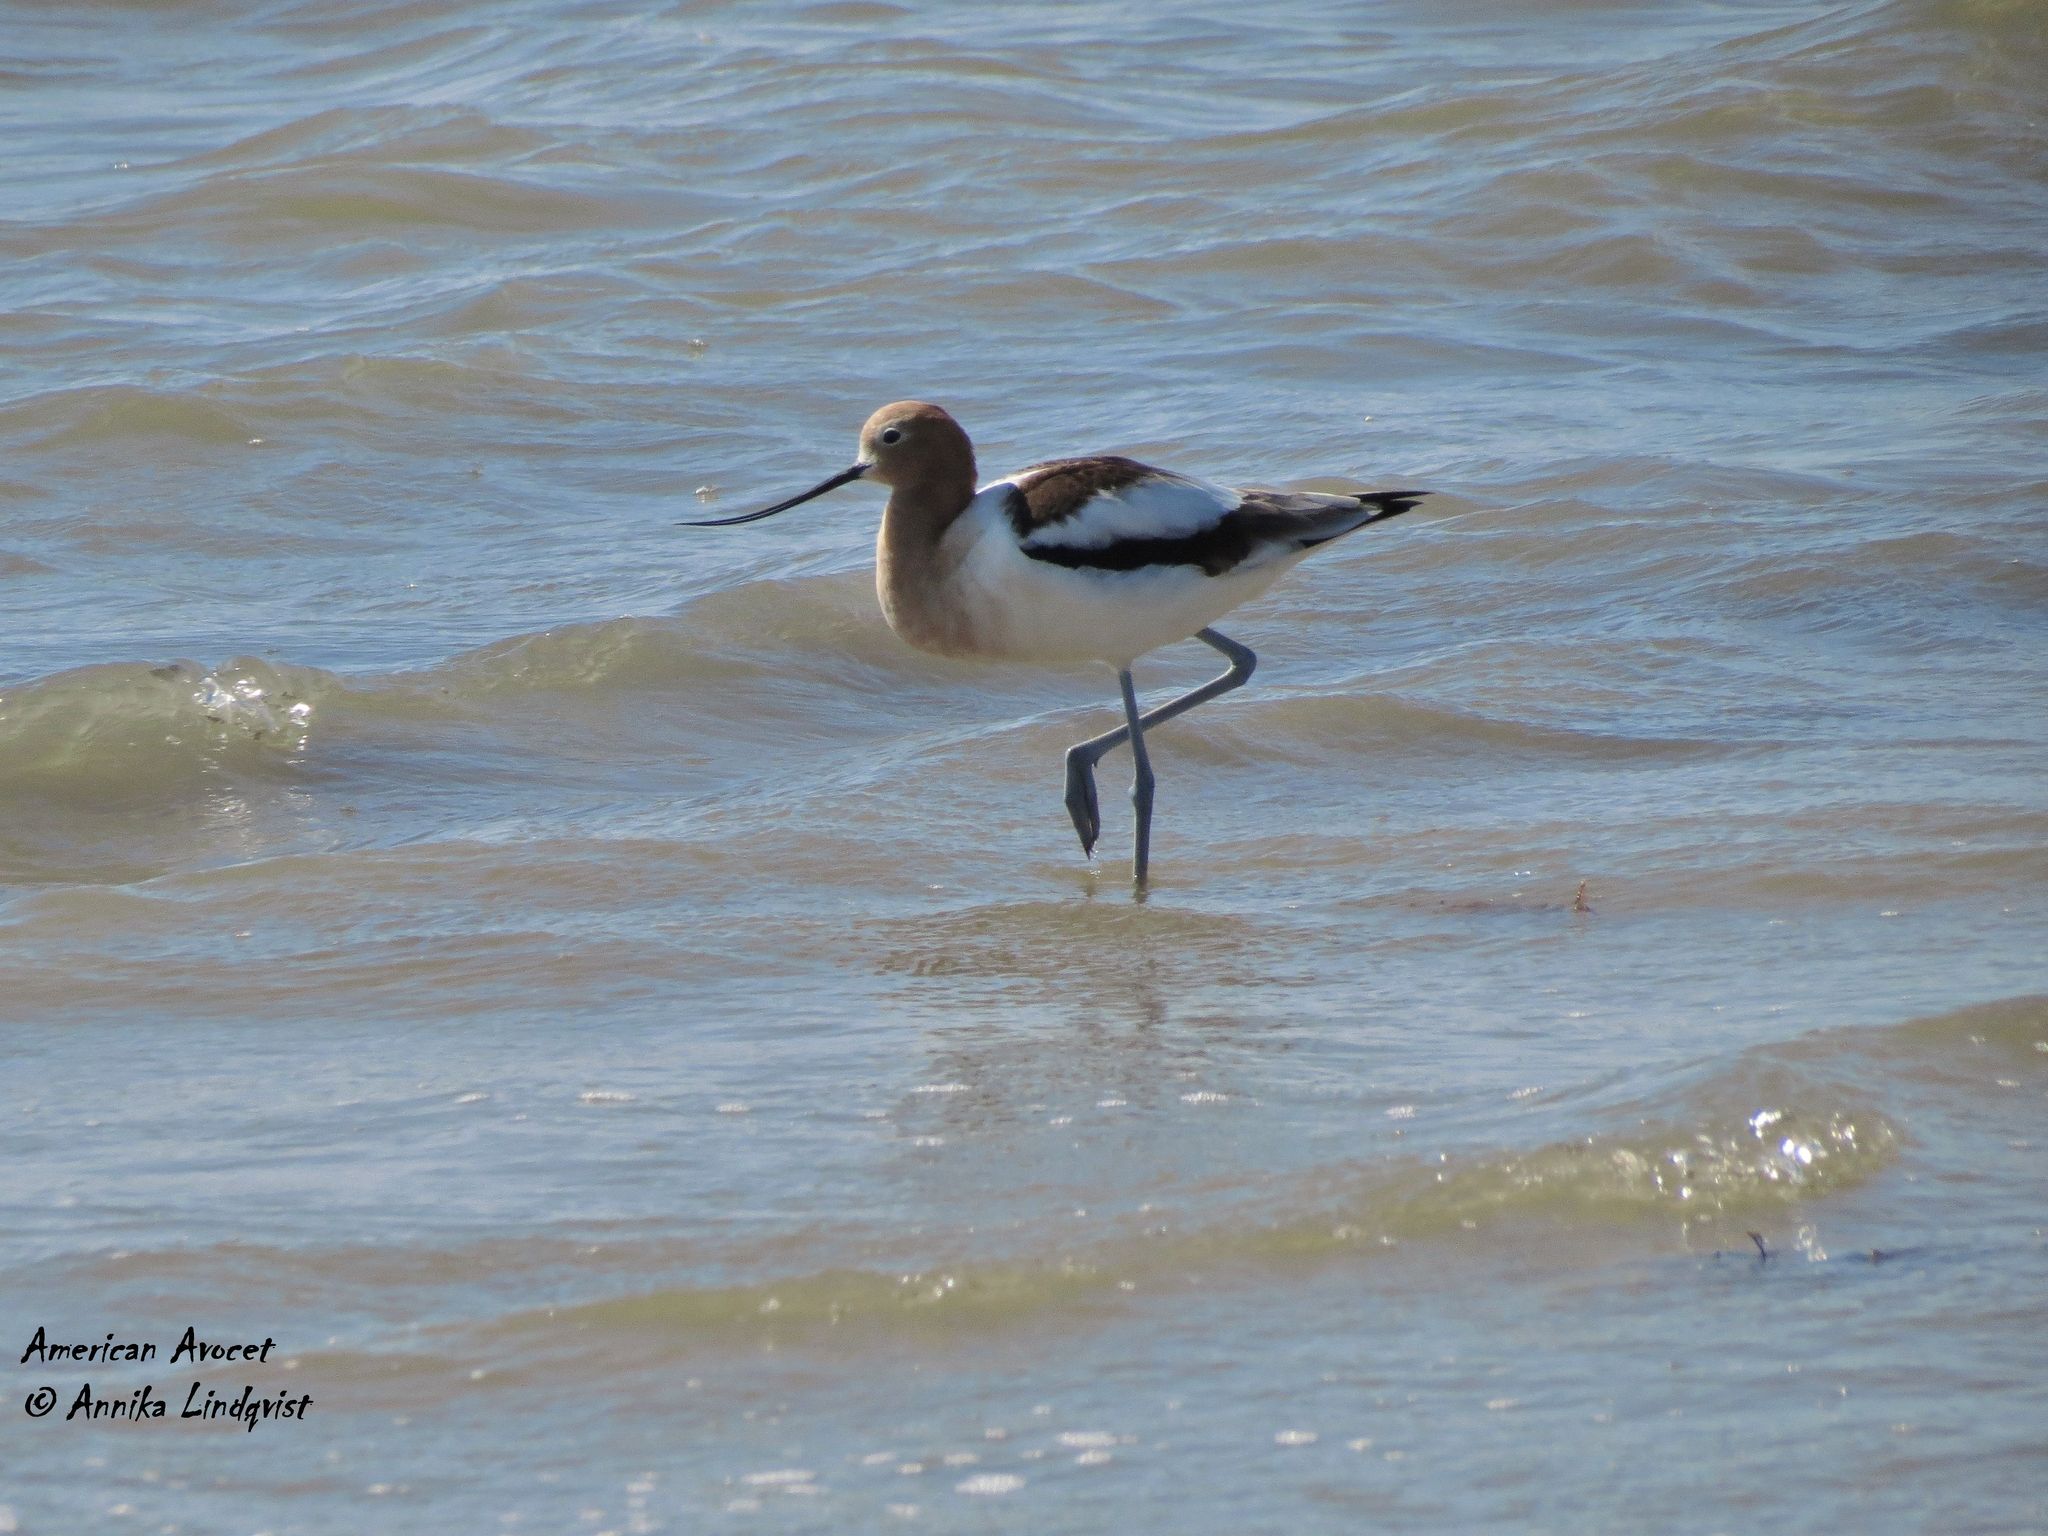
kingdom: Animalia
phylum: Chordata
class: Aves
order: Charadriiformes
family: Recurvirostridae
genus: Recurvirostra
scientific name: Recurvirostra americana
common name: American avocet
